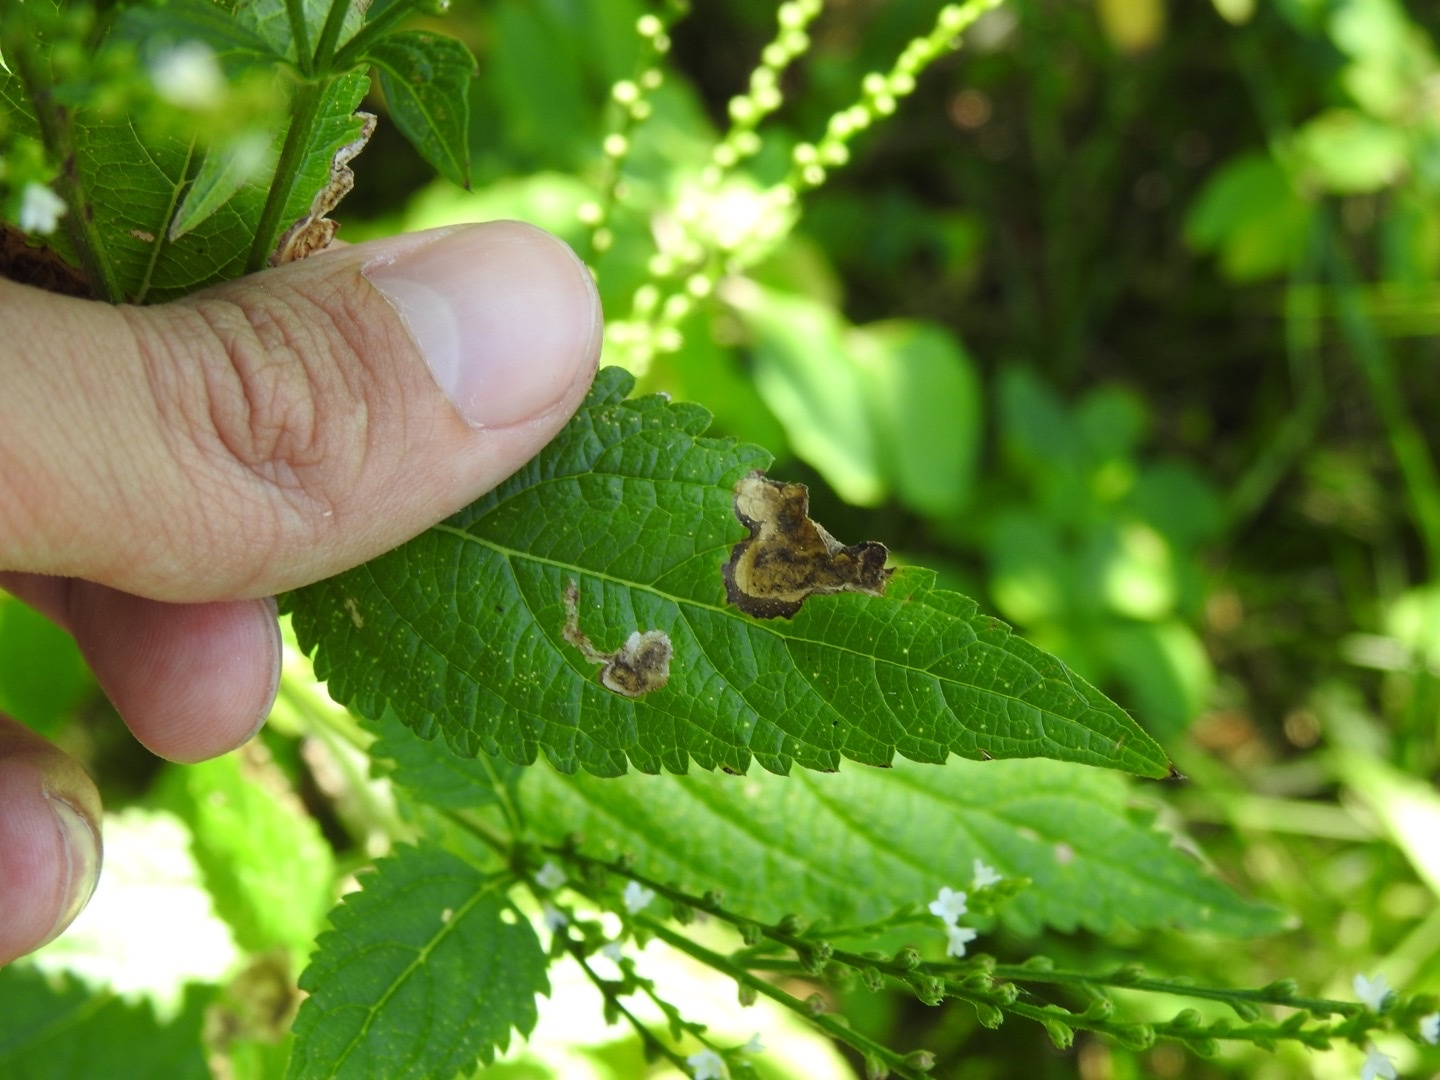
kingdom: Animalia
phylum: Arthropoda
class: Insecta
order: Diptera
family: Agromyzidae
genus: Calycomyza
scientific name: Calycomyza verbenae
